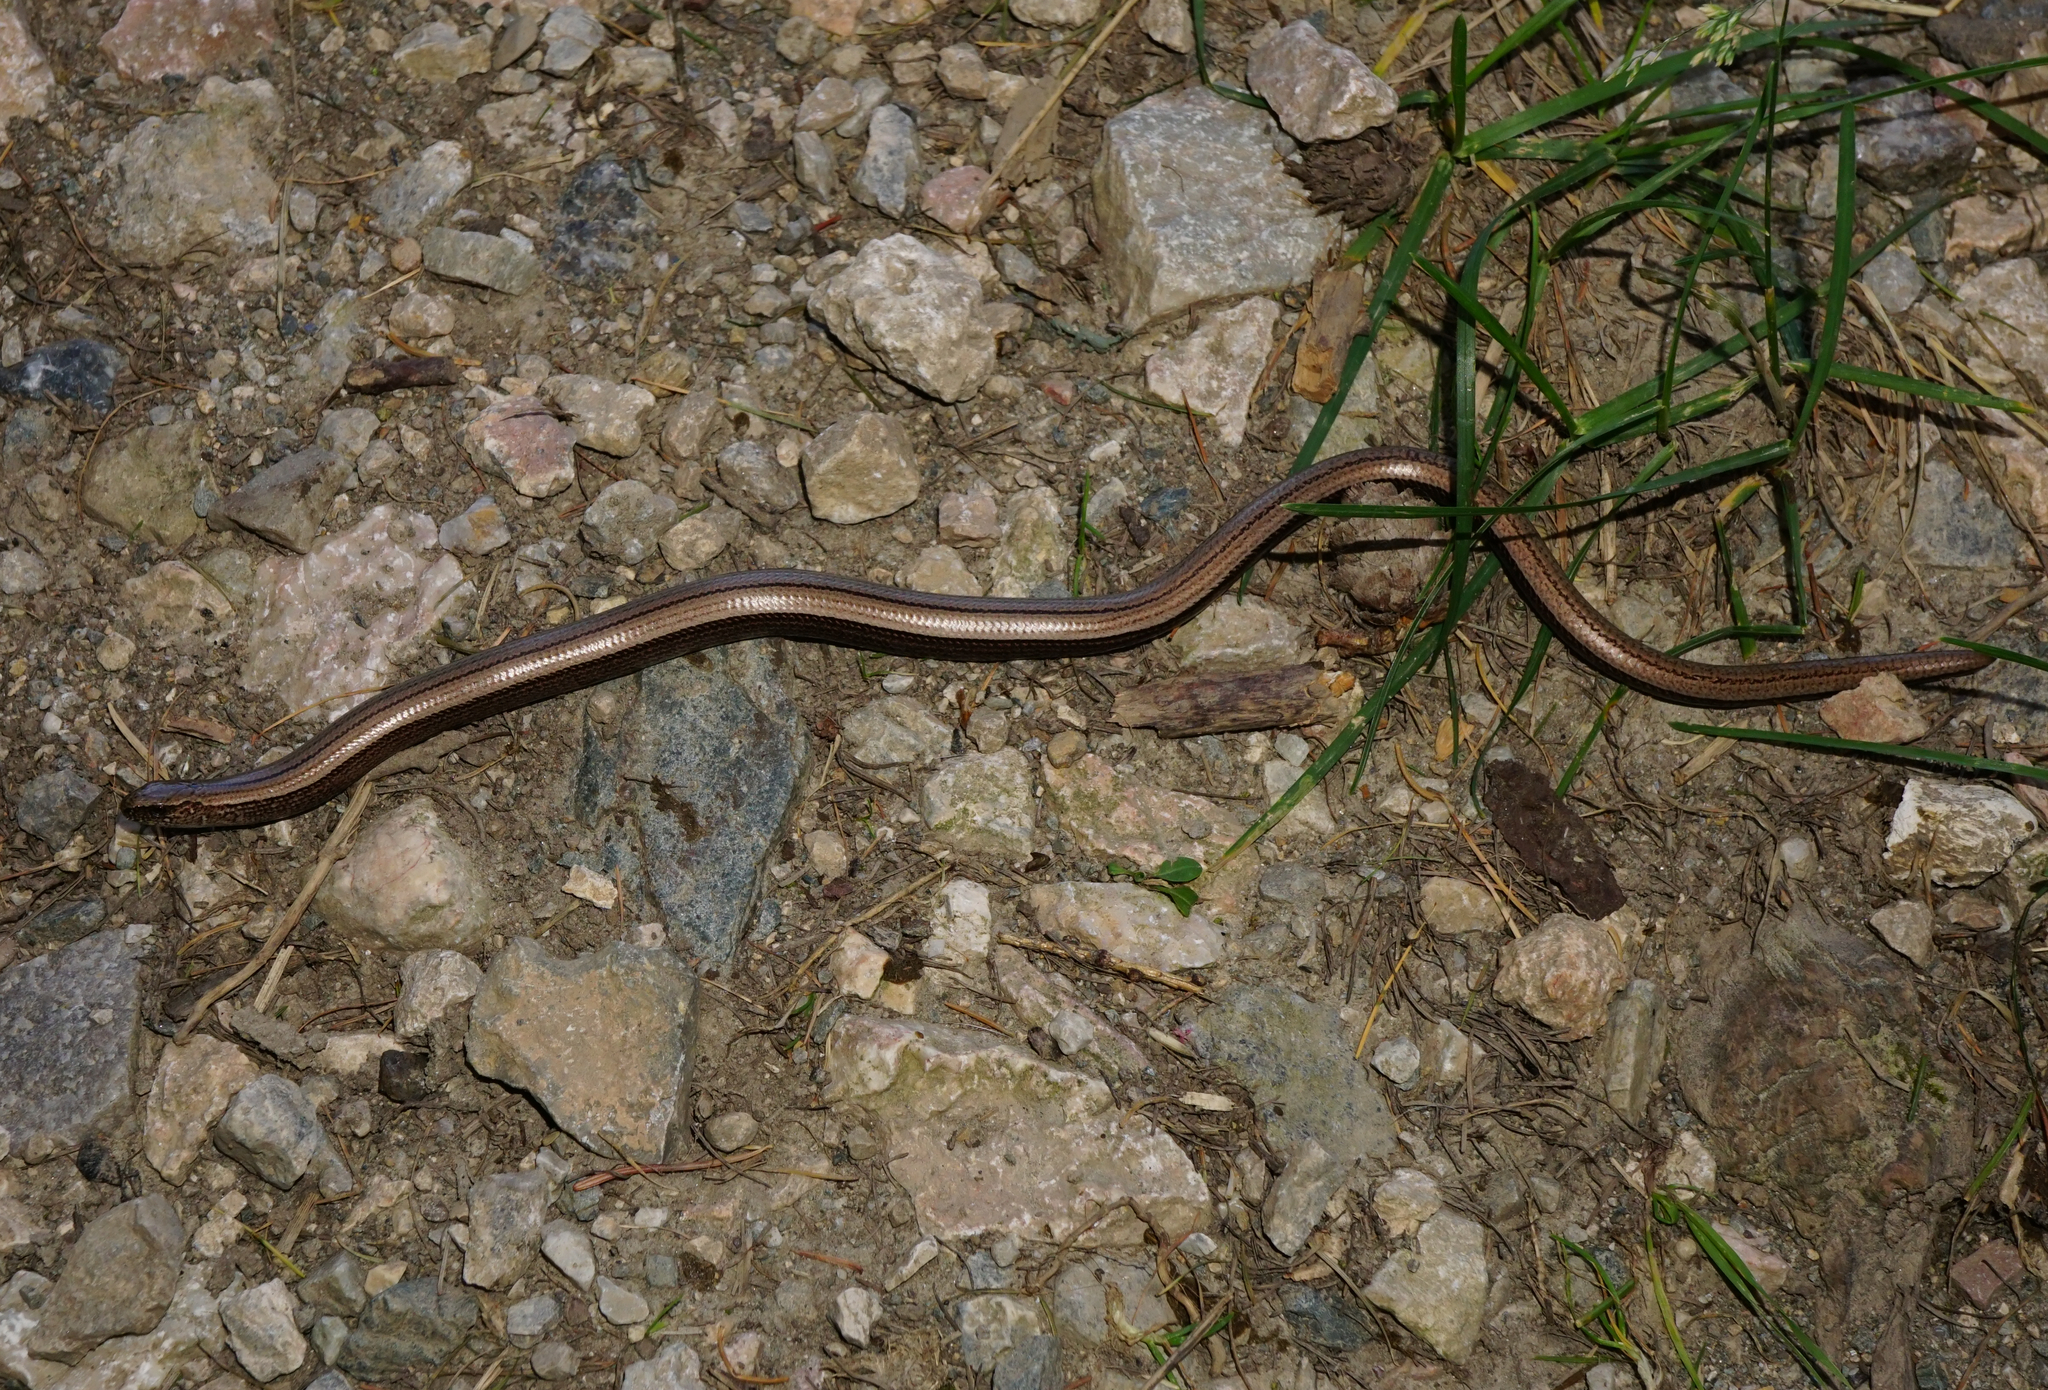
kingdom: Animalia
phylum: Chordata
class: Squamata
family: Anguidae
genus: Anguis
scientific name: Anguis fragilis
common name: Slow worm
